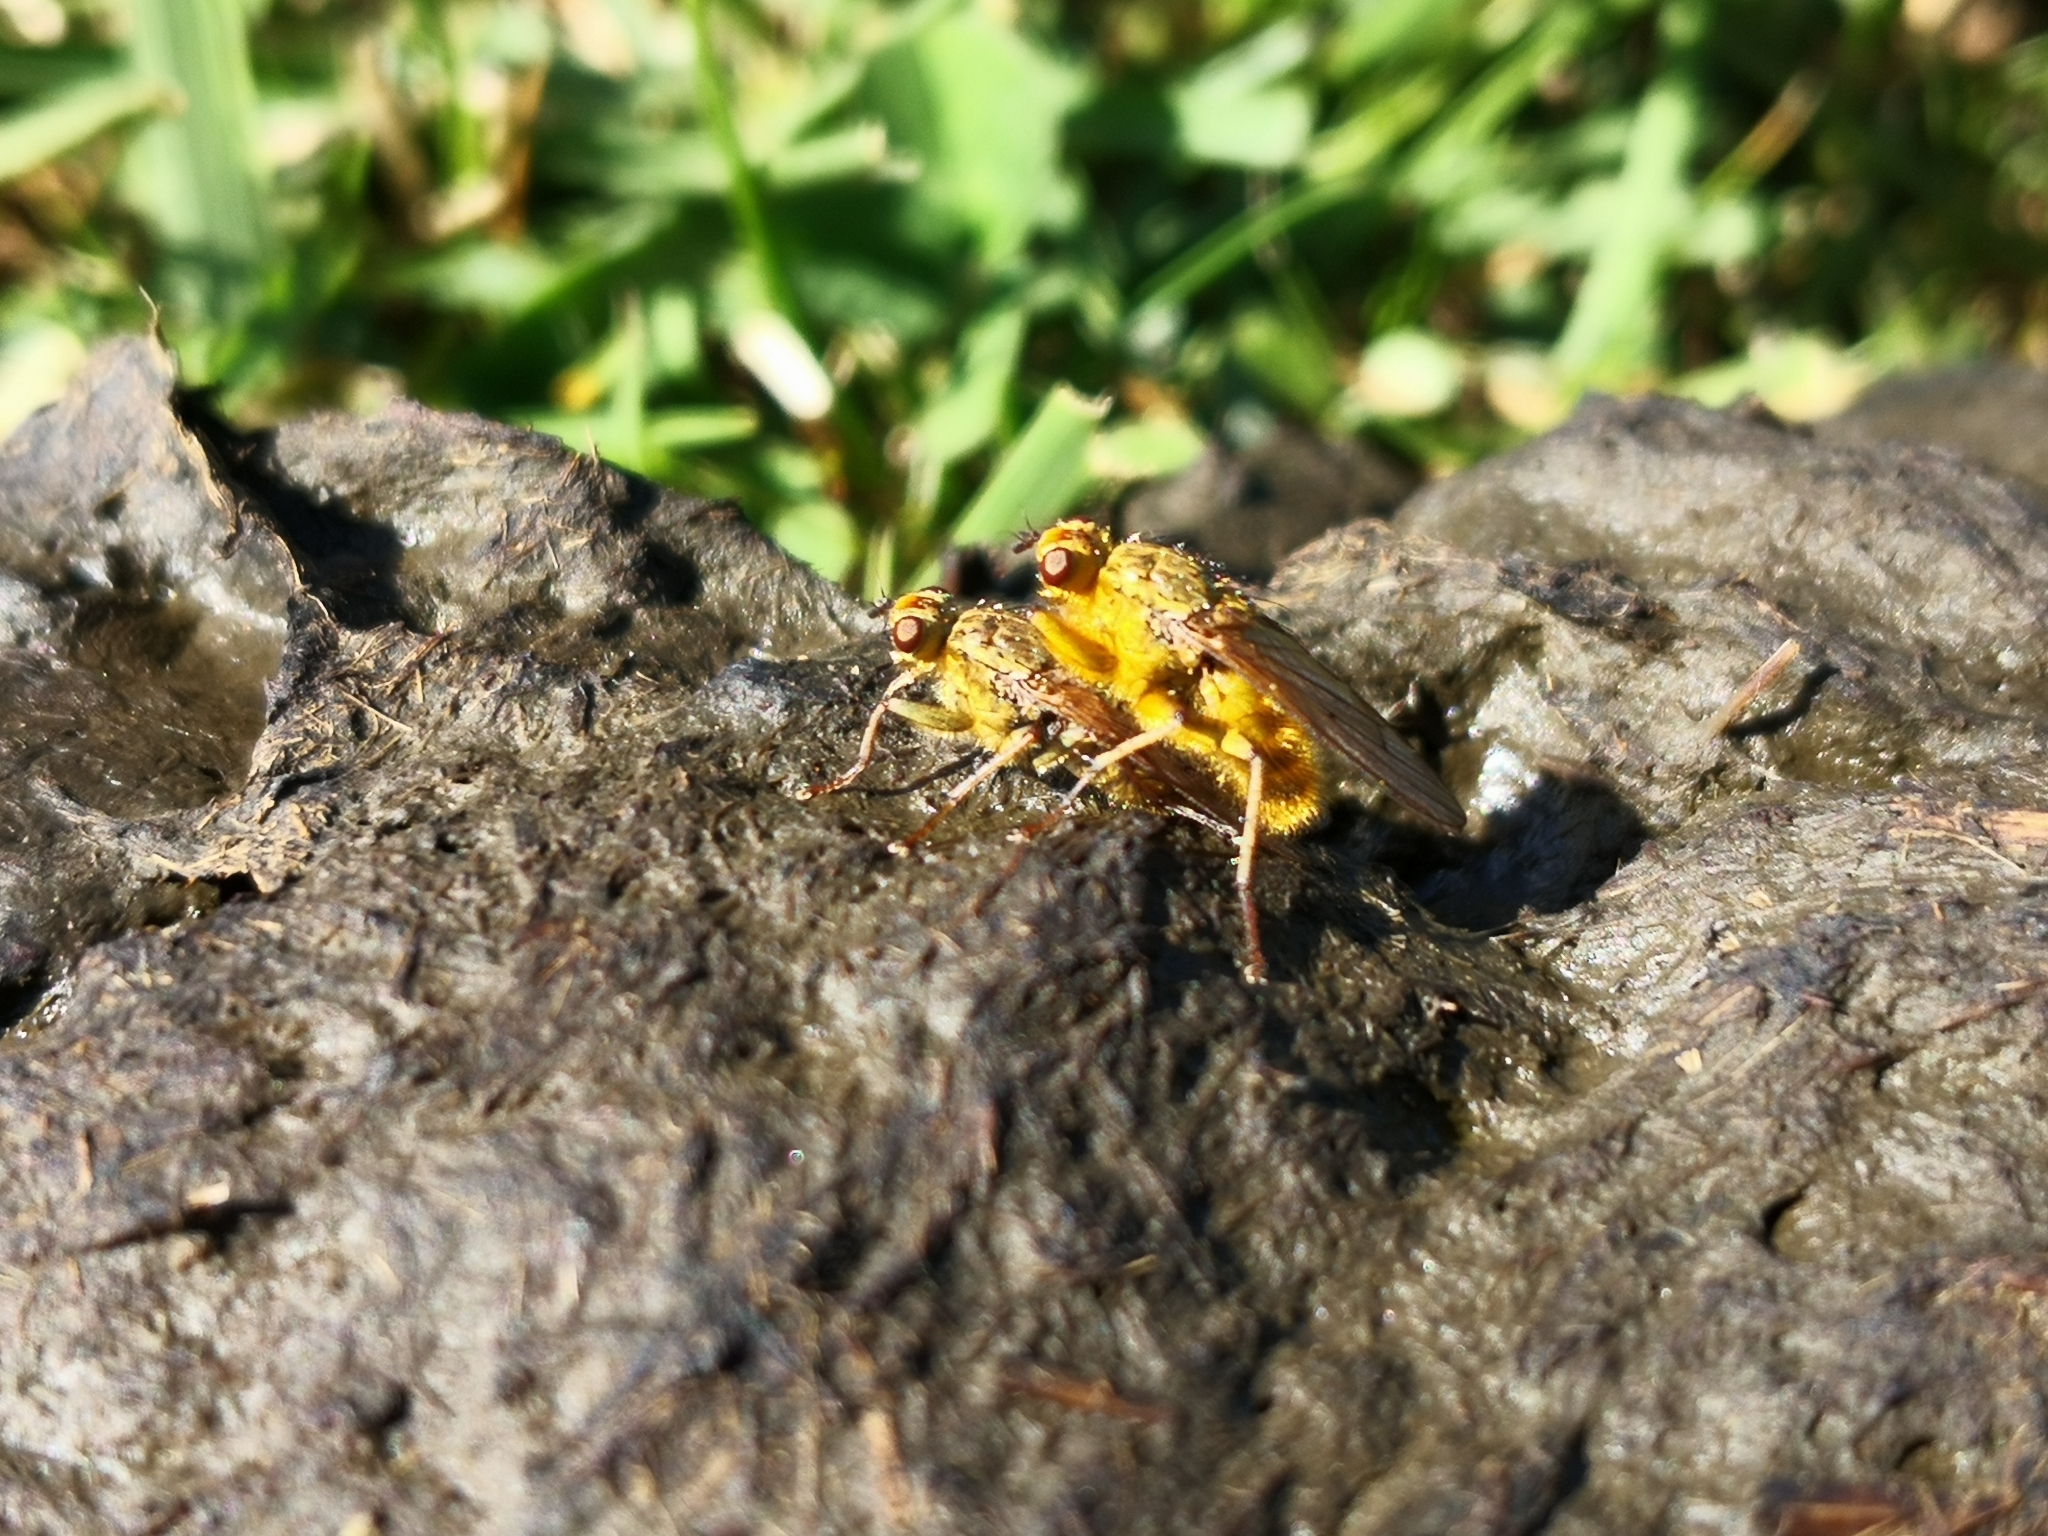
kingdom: Animalia
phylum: Arthropoda
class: Insecta
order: Diptera
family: Scathophagidae
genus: Scathophaga
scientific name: Scathophaga stercoraria
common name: Yellow dung fly
